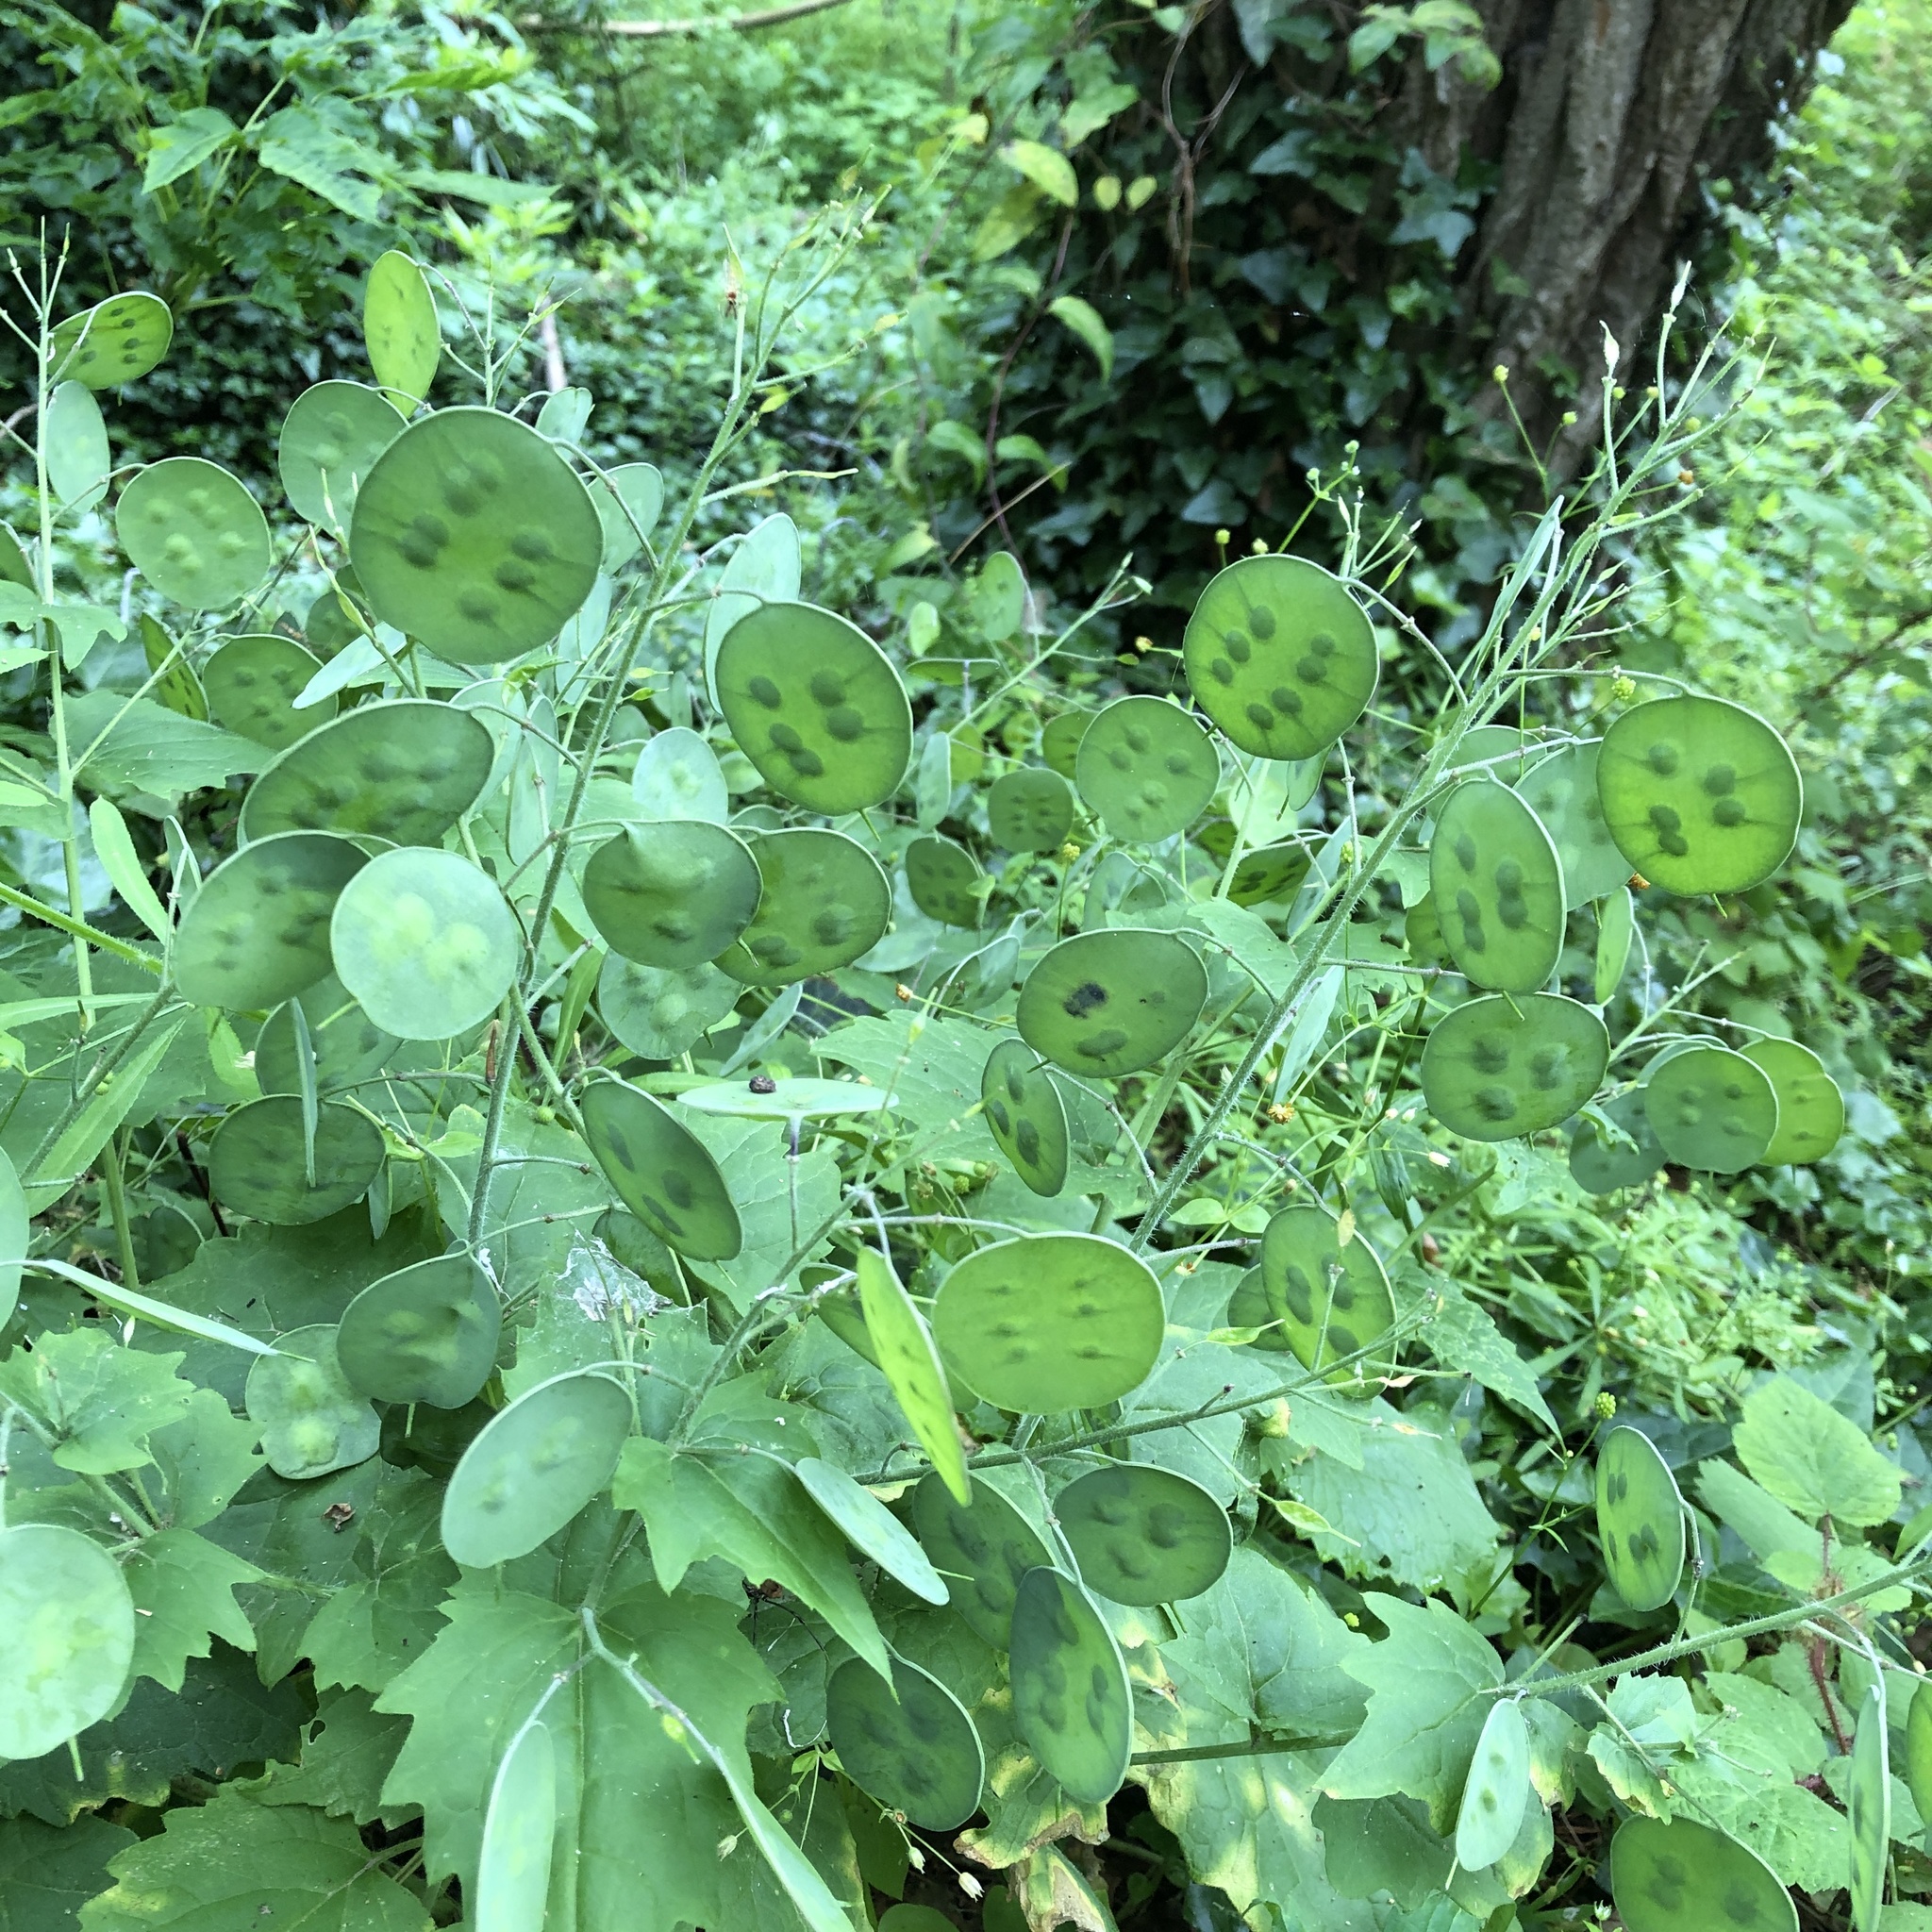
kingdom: Plantae
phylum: Tracheophyta
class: Magnoliopsida
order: Brassicales
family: Brassicaceae
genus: Lunaria
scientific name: Lunaria annua
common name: Honesty
